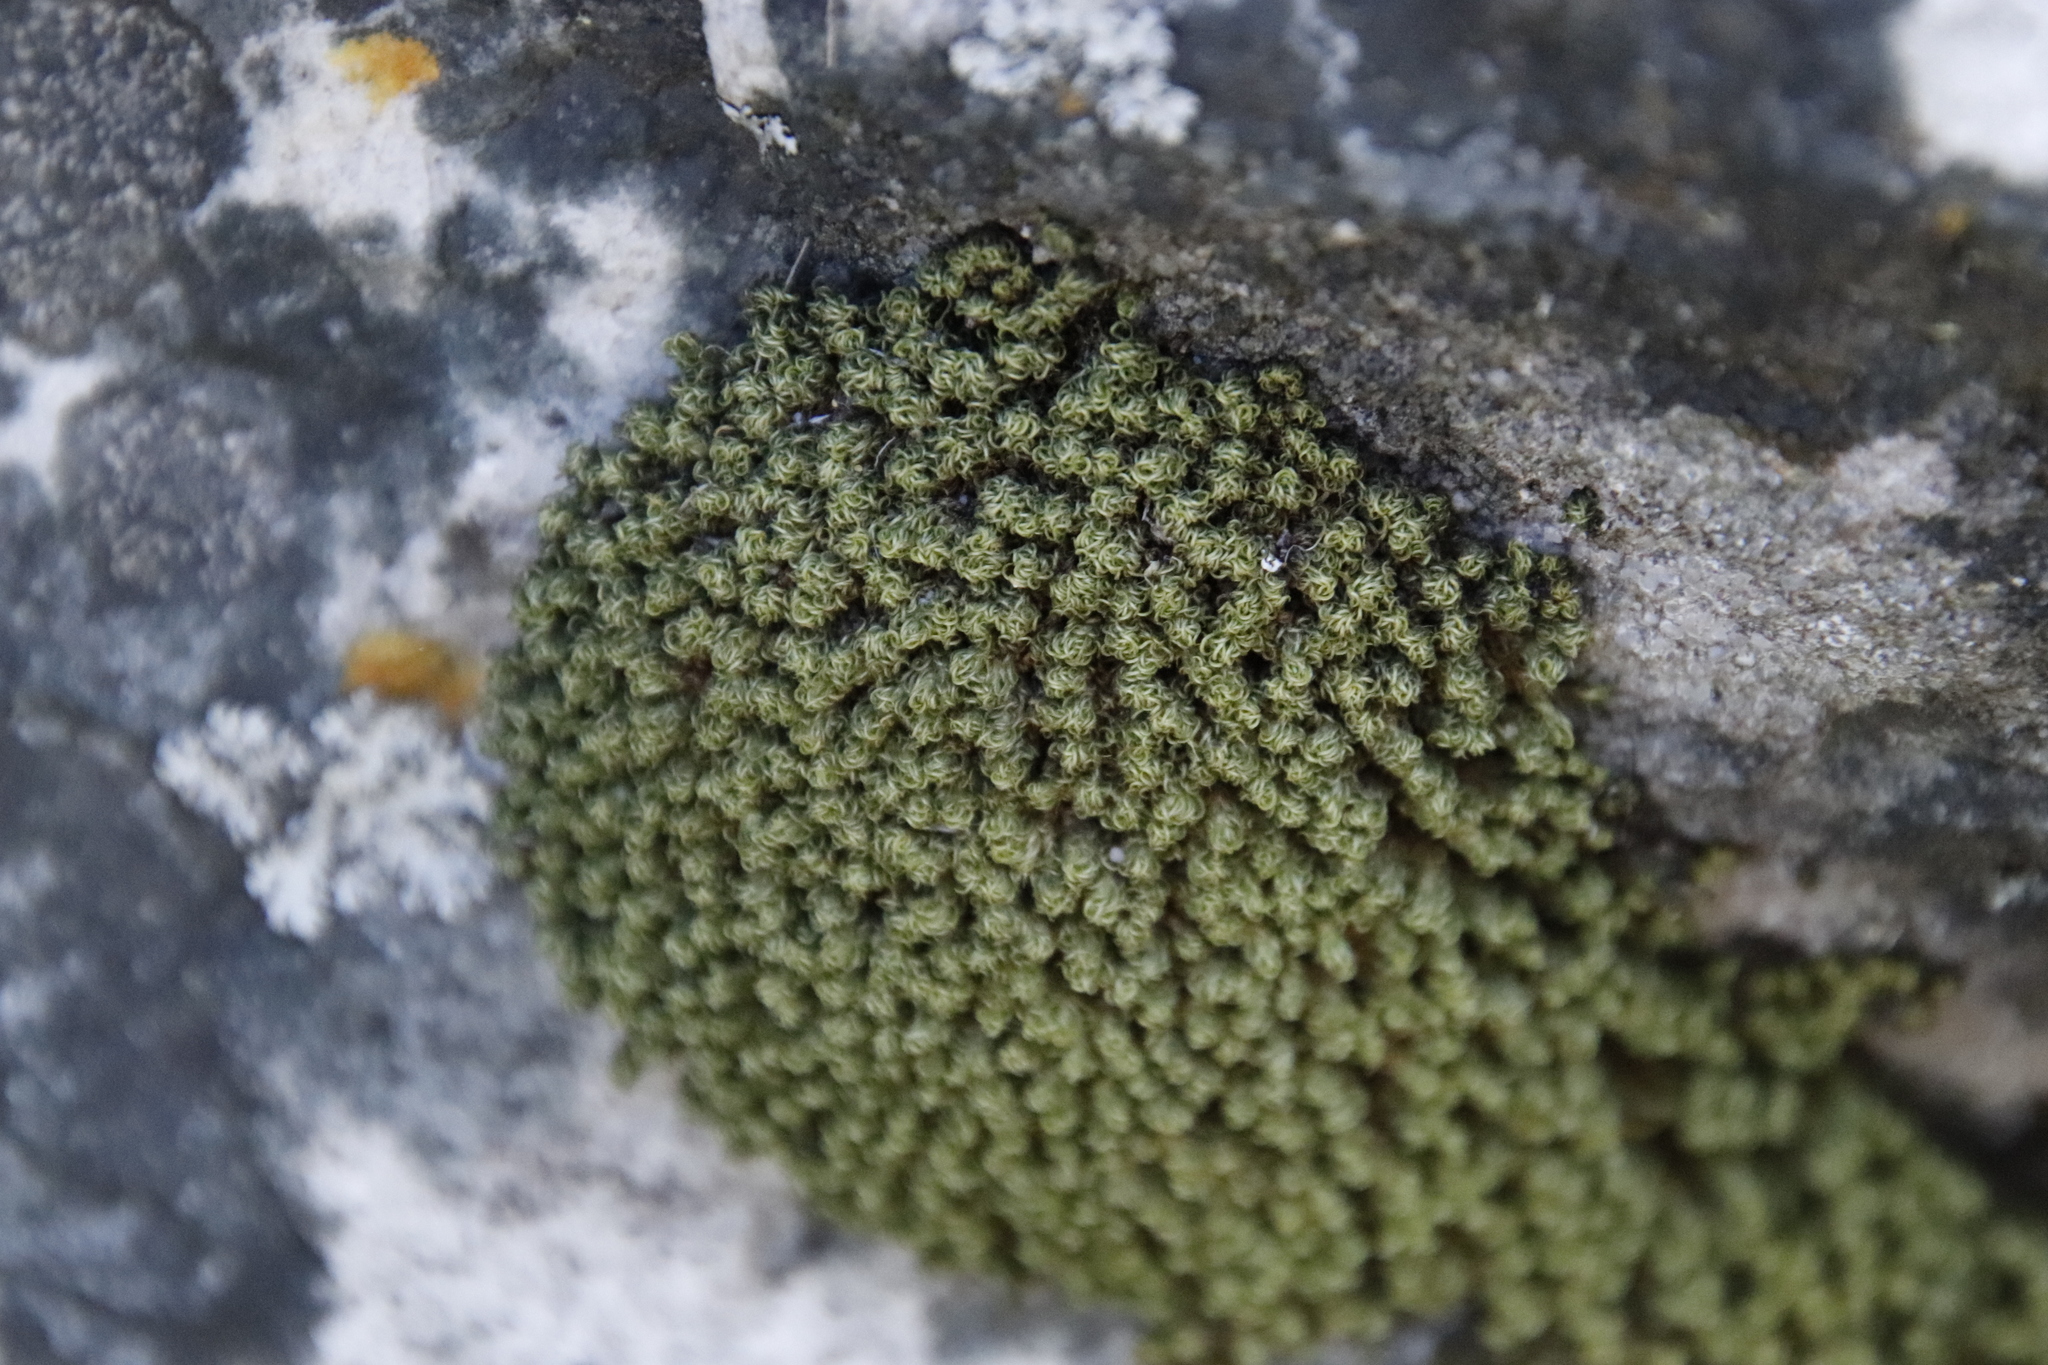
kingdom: Plantae
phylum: Bryophyta
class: Bryopsida
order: Dicranales
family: Hypodontiaceae
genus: Hypodontium
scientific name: Hypodontium dregei
